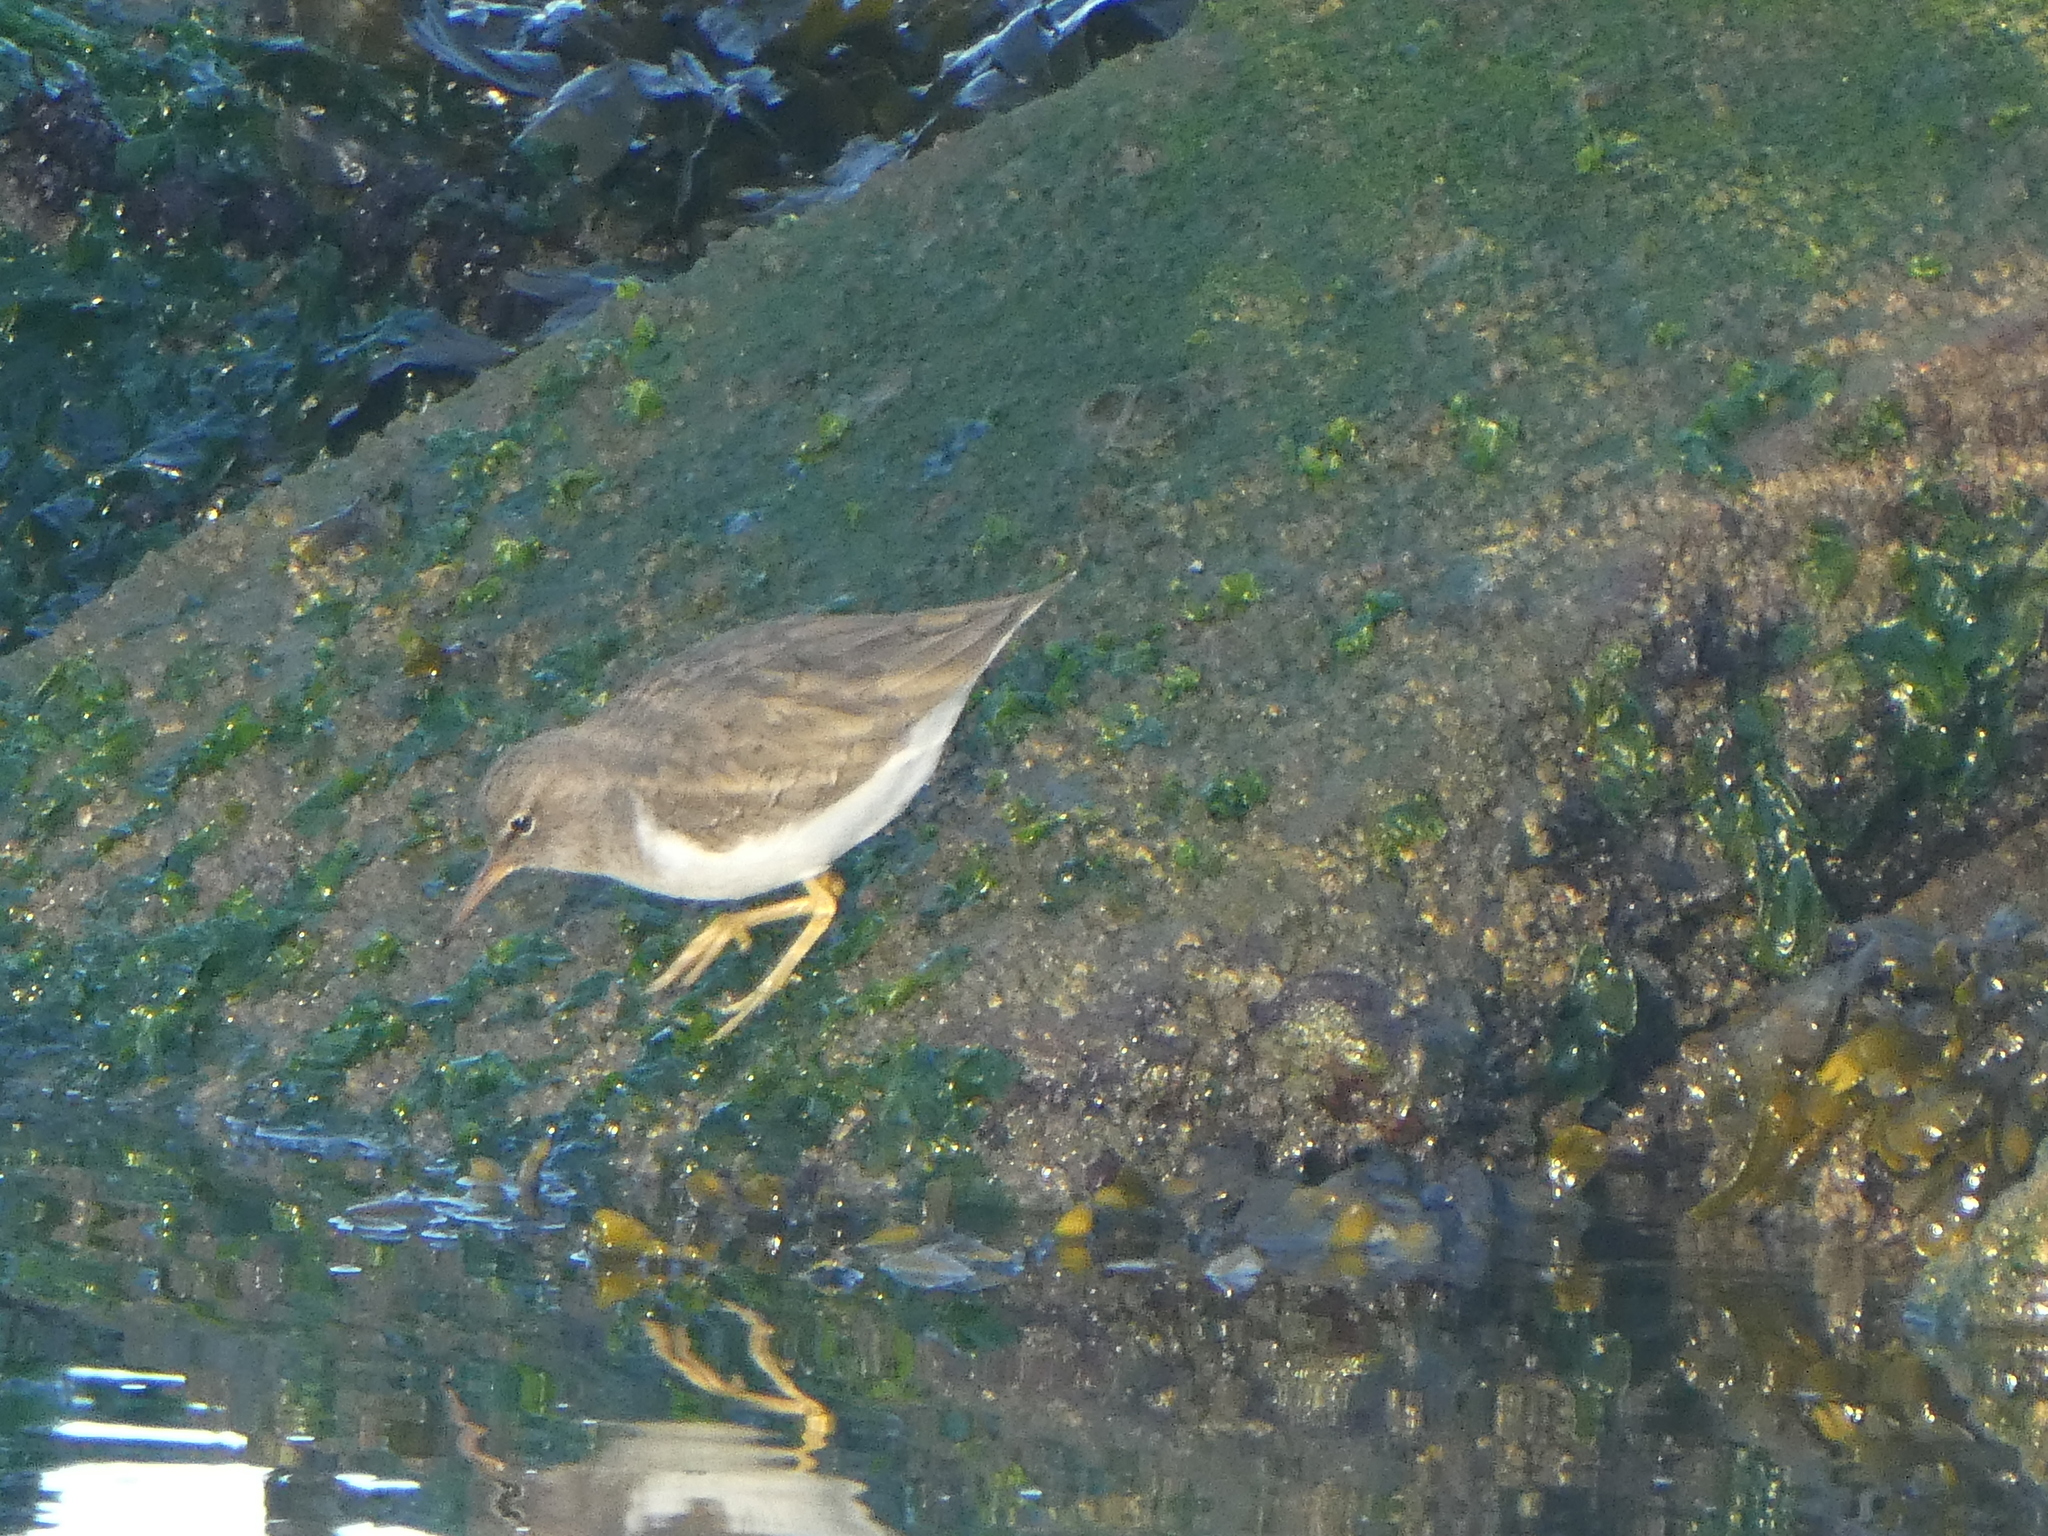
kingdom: Animalia
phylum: Chordata
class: Aves
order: Charadriiformes
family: Scolopacidae
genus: Actitis
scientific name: Actitis macularius
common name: Spotted sandpiper
